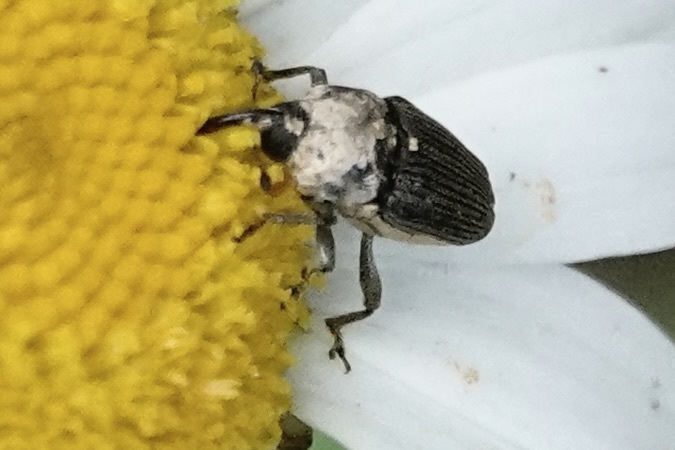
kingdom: Animalia
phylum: Arthropoda
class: Insecta
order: Coleoptera
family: Curculionidae
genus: Odontocorynus
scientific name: Odontocorynus salebrosus
